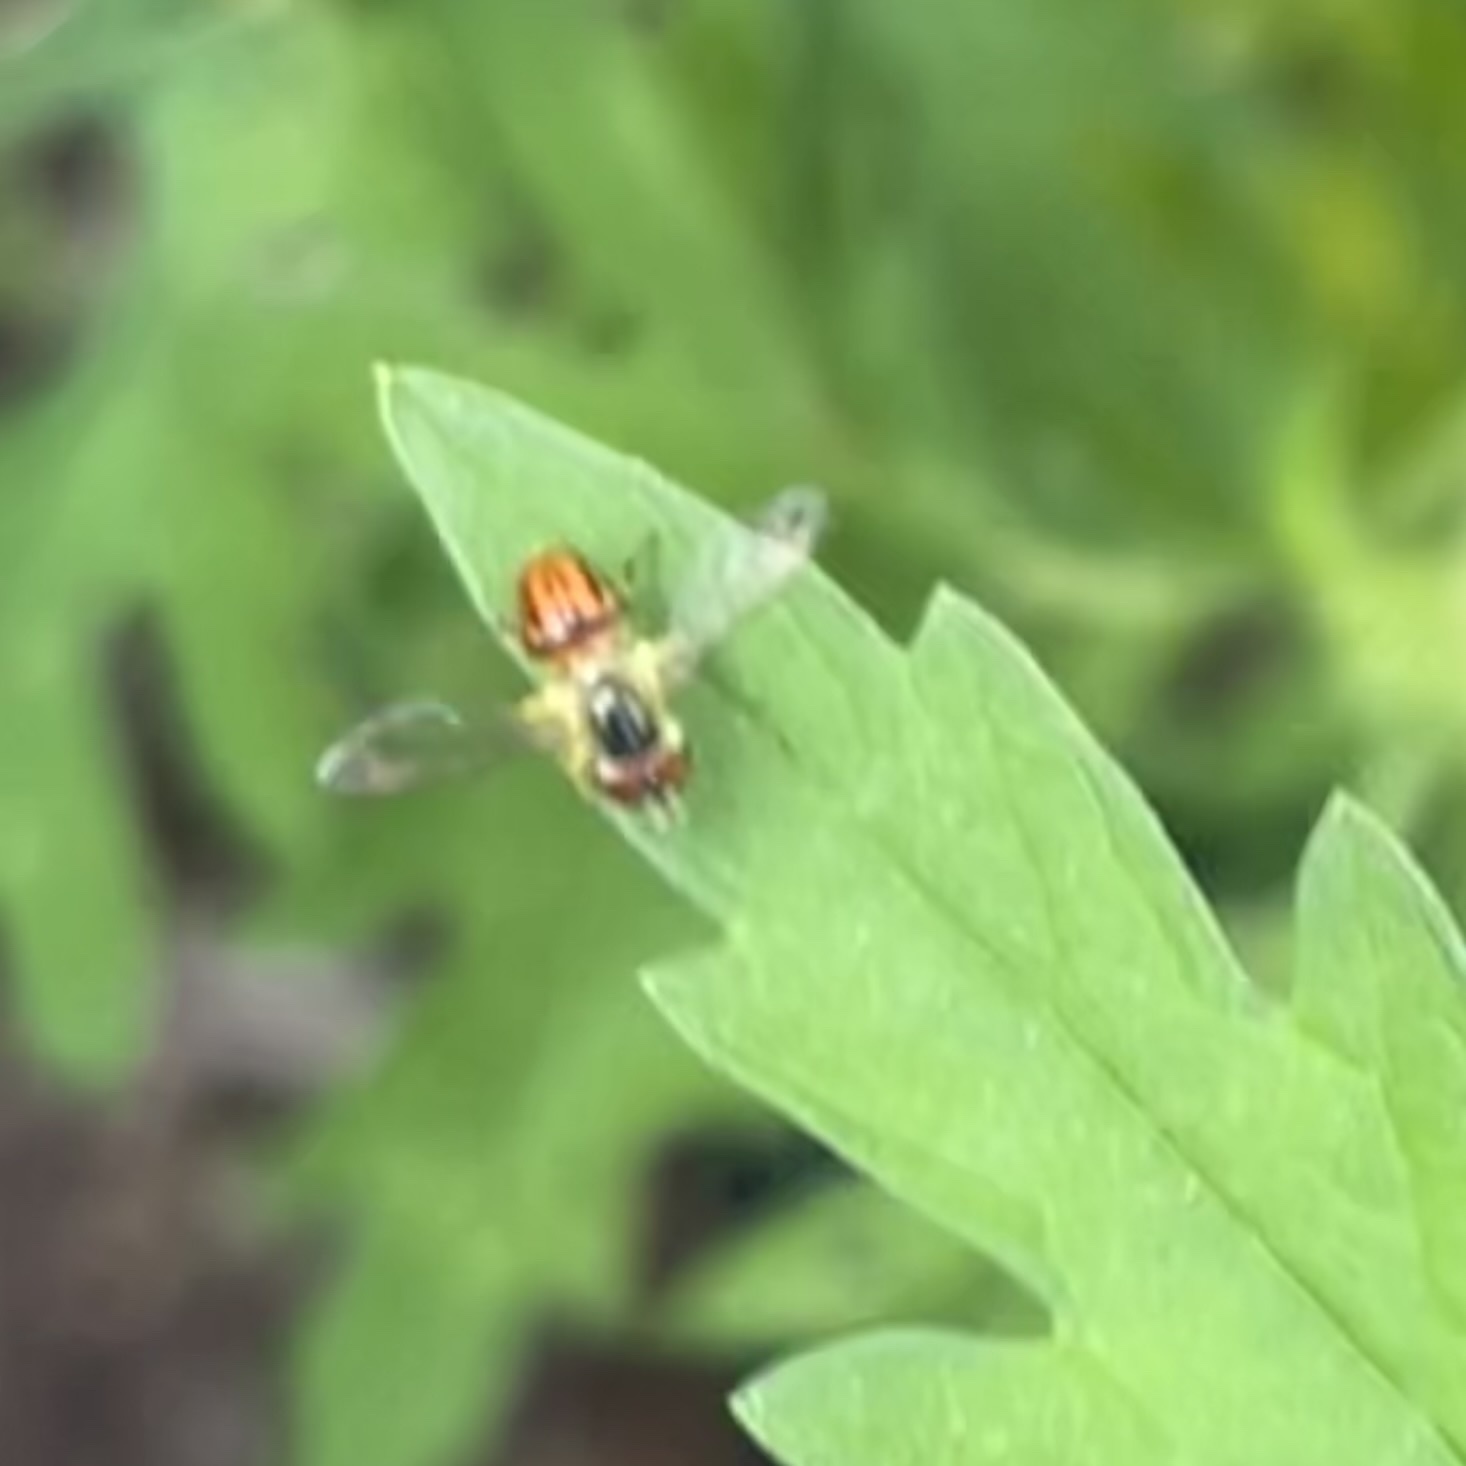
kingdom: Animalia
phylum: Arthropoda
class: Insecta
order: Diptera
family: Syrphidae
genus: Toxomerus
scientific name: Toxomerus boscii
